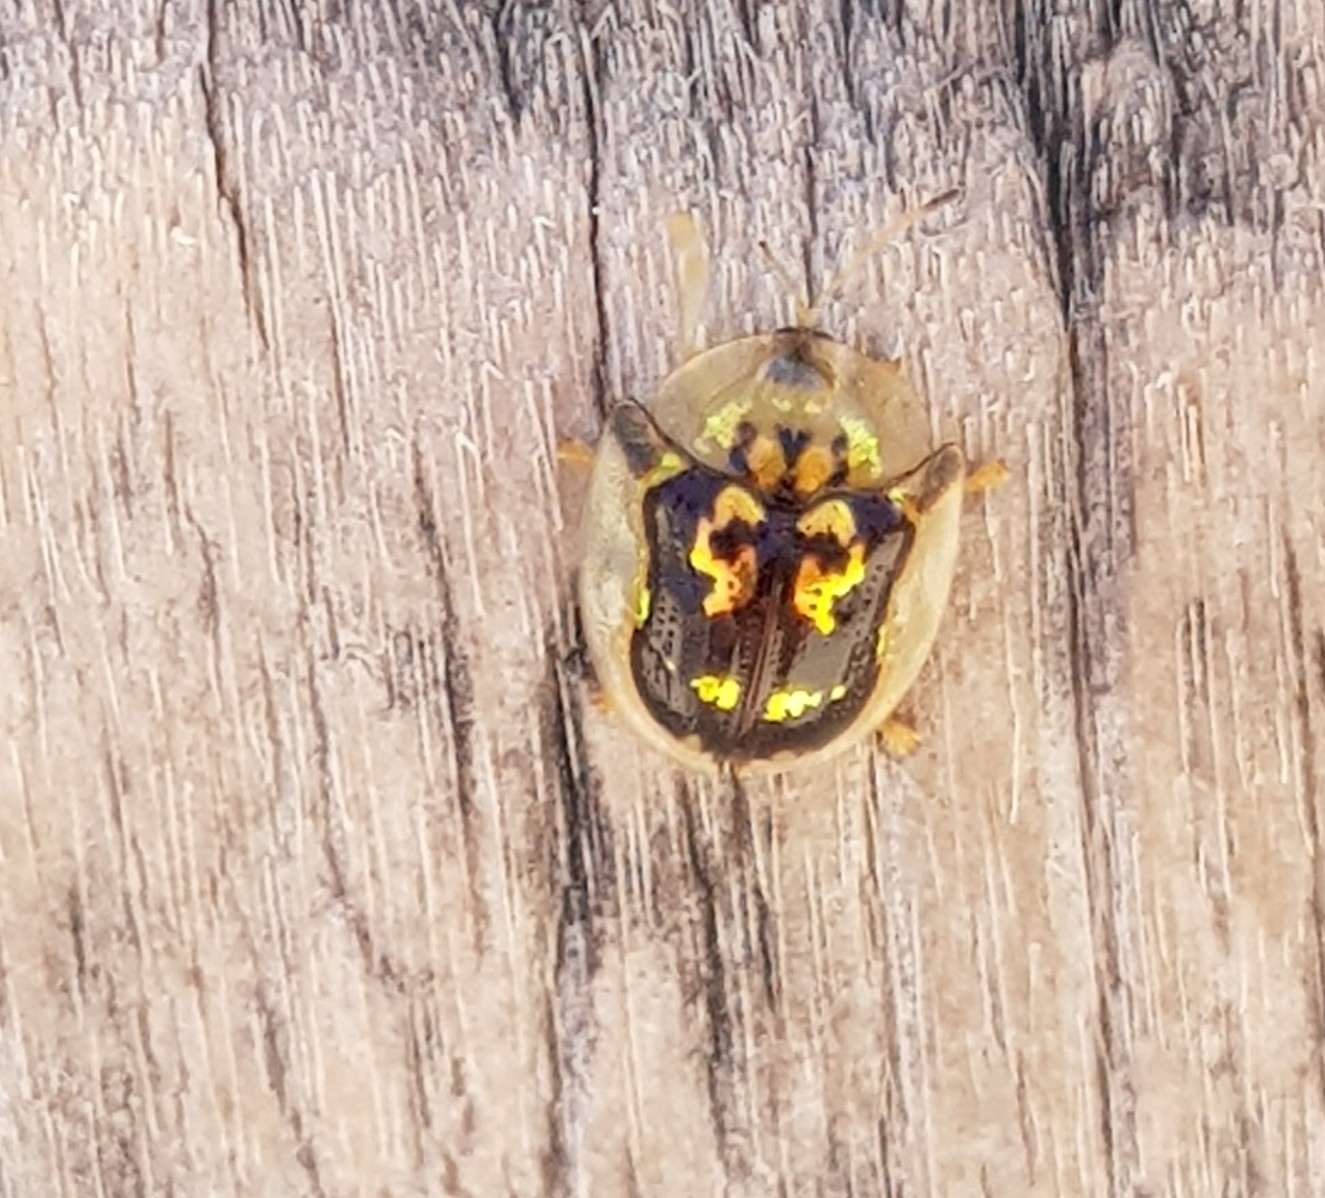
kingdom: Animalia
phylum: Arthropoda
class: Insecta
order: Coleoptera
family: Chrysomelidae
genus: Deloyala
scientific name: Deloyala lecontei
